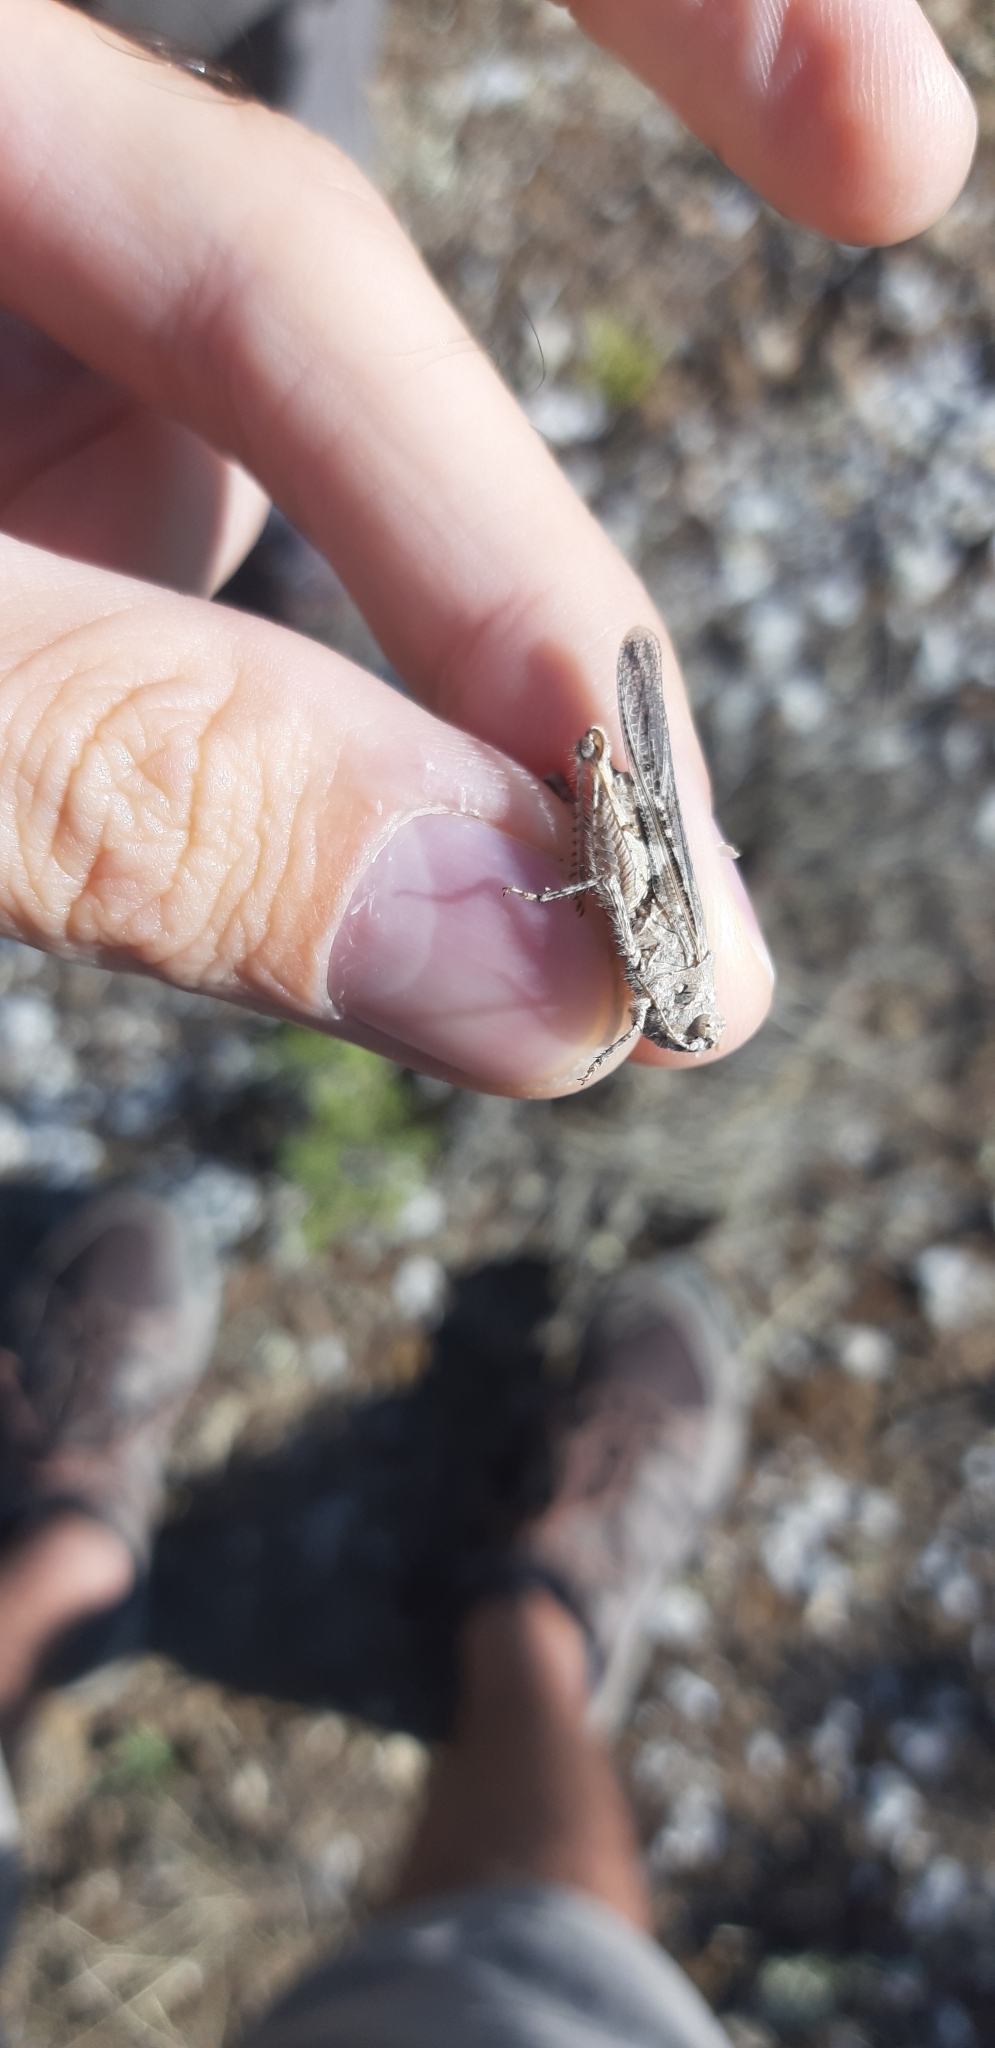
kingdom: Animalia
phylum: Arthropoda
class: Insecta
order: Orthoptera
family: Acrididae
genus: Acrotylus
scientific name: Acrotylus insubricus
